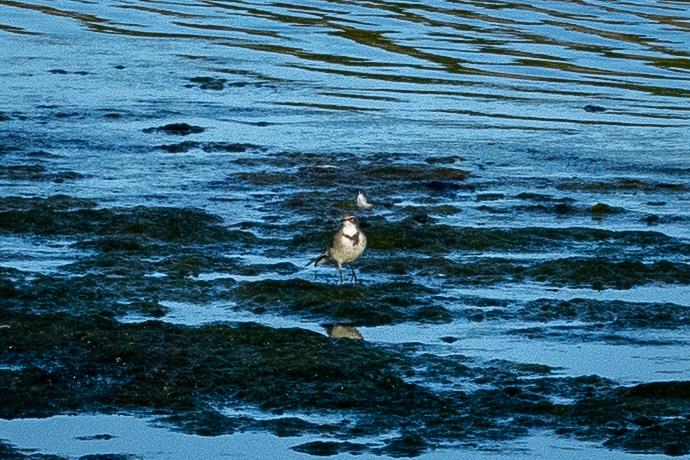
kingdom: Animalia
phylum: Chordata
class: Aves
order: Passeriformes
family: Motacillidae
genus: Motacilla
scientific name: Motacilla capensis
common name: Cape wagtail
